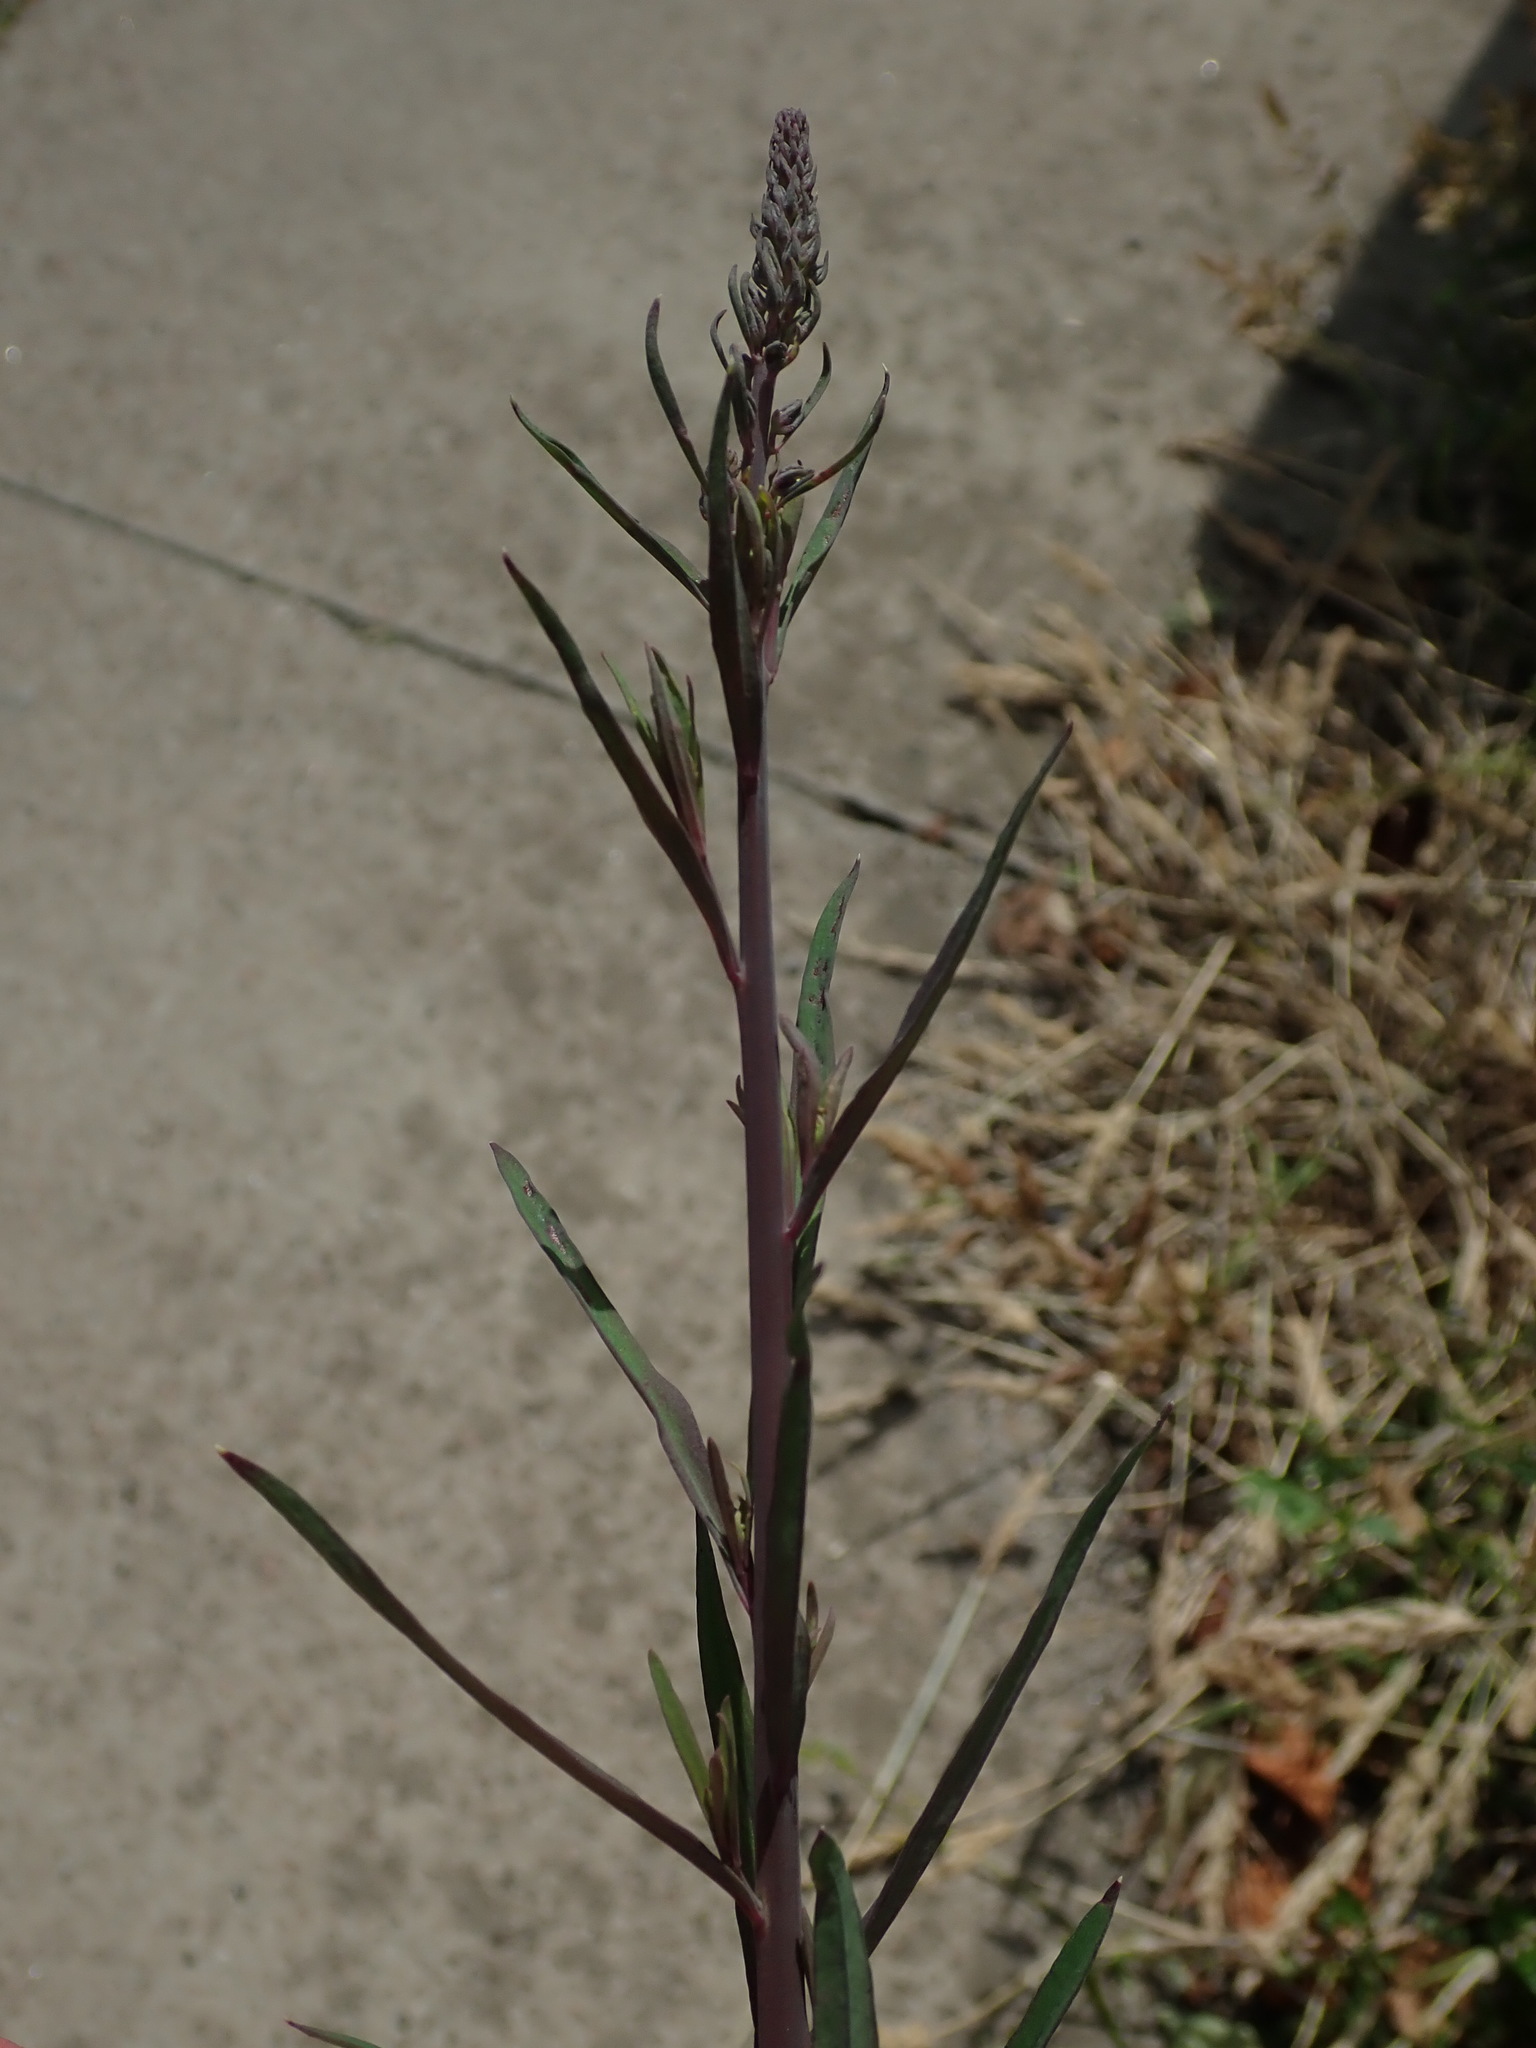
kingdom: Plantae
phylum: Tracheophyta
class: Magnoliopsida
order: Lamiales
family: Plantaginaceae
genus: Linaria
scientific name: Linaria purpurea
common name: Purple toadflax
